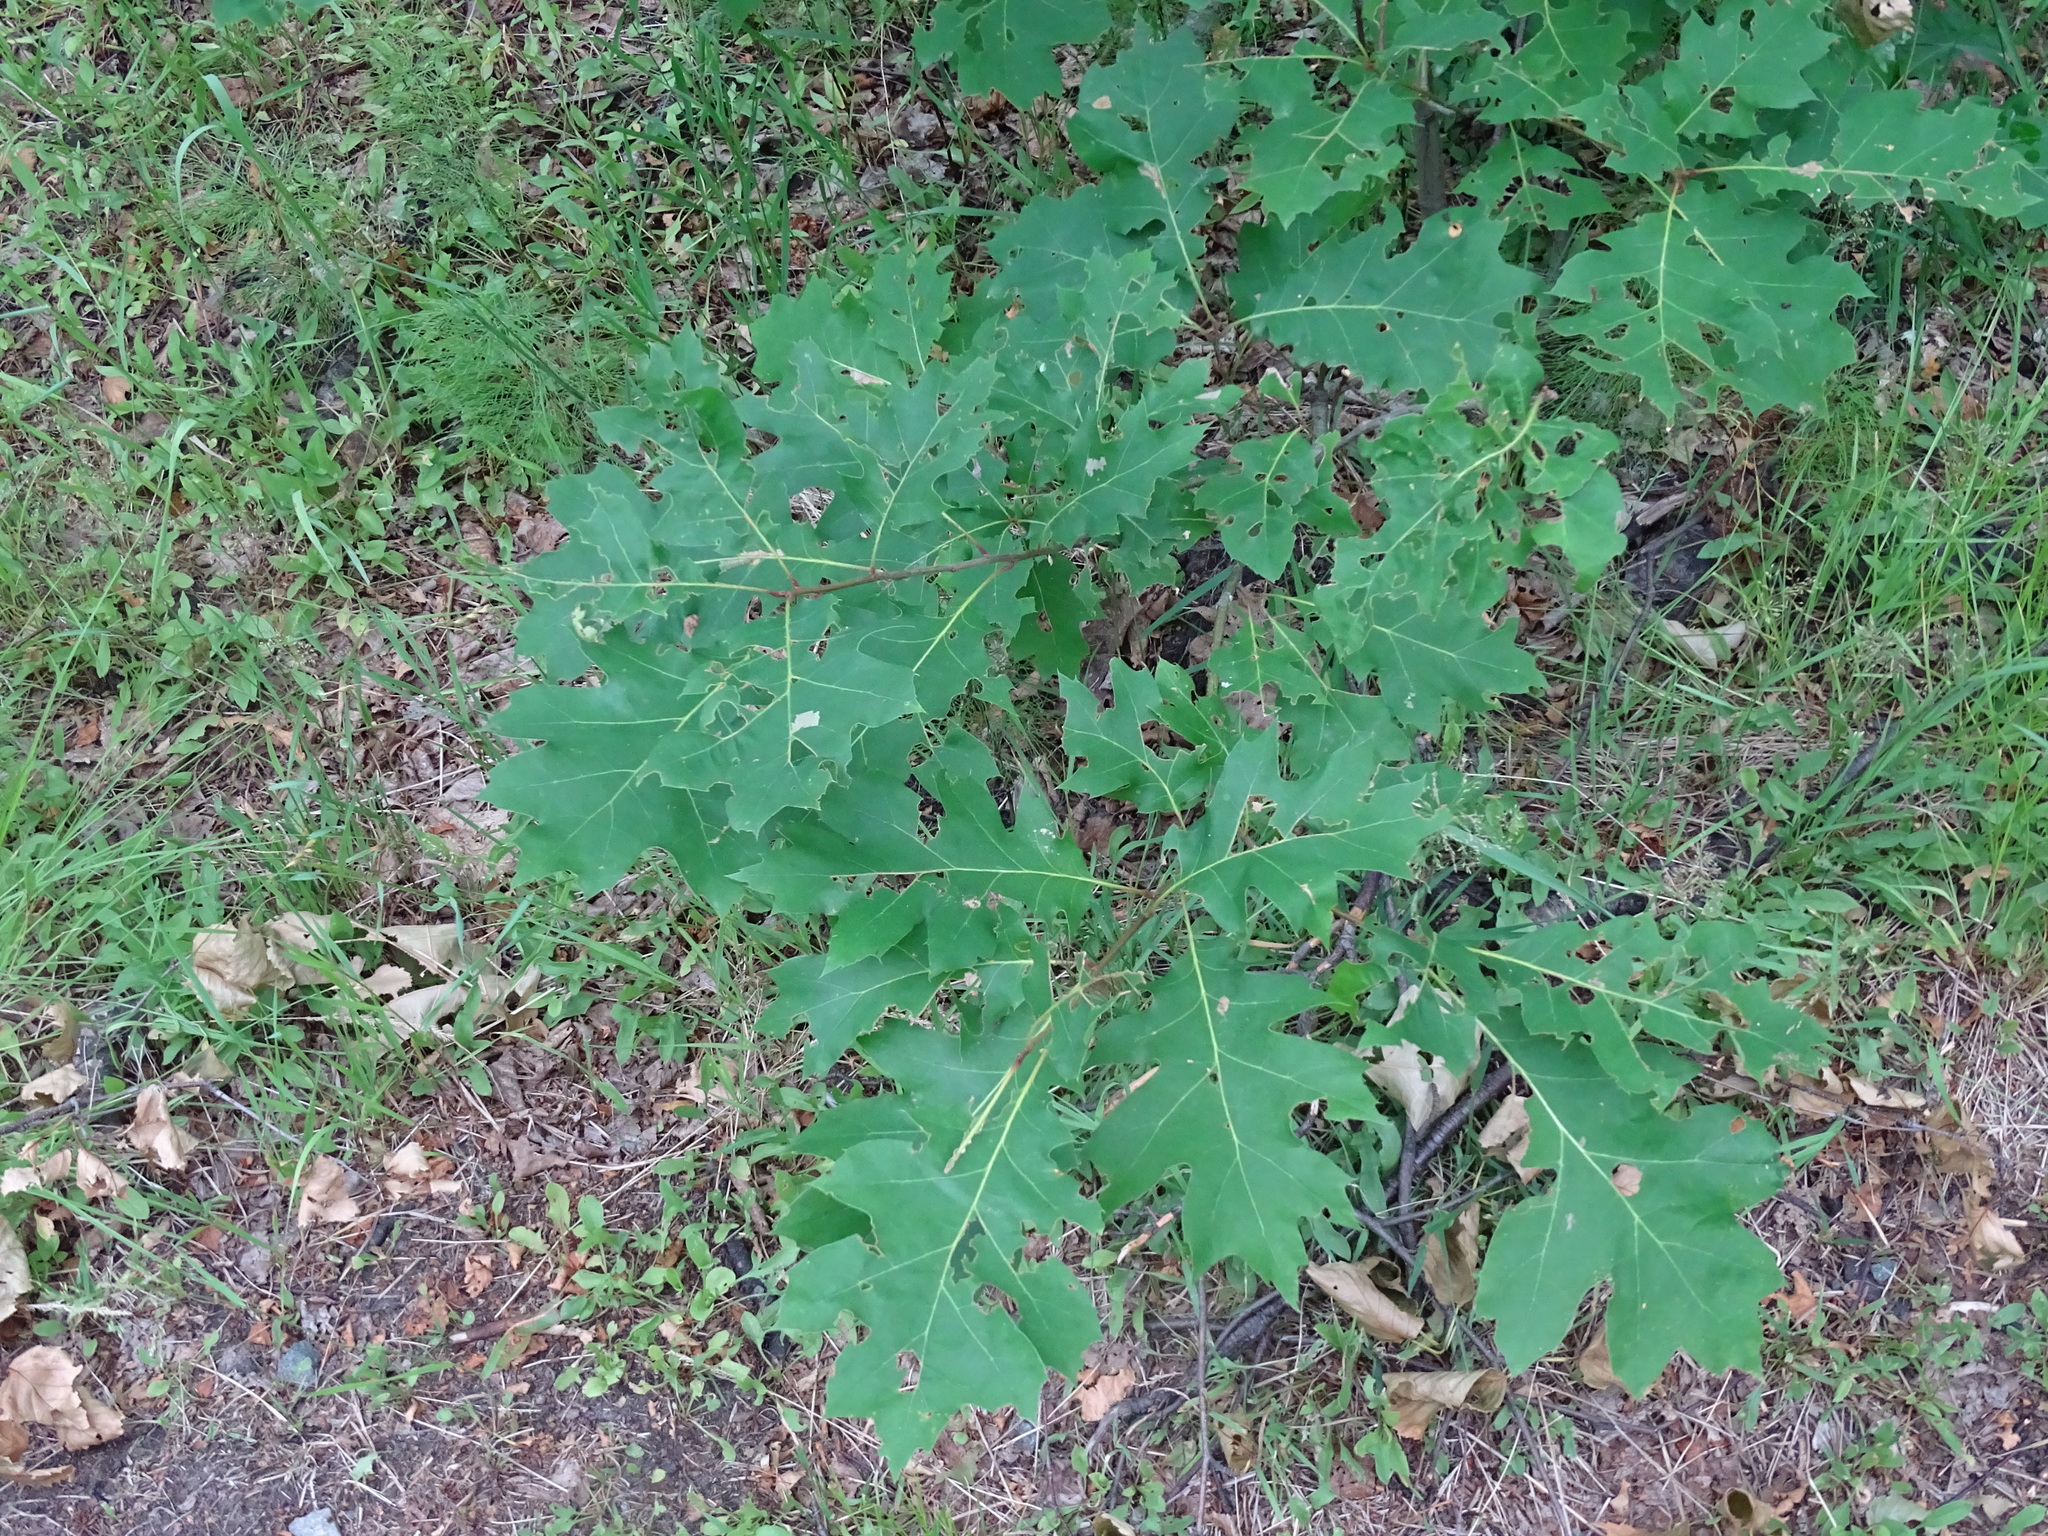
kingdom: Plantae
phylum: Tracheophyta
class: Magnoliopsida
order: Fagales
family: Fagaceae
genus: Quercus
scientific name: Quercus rubra
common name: Red oak
